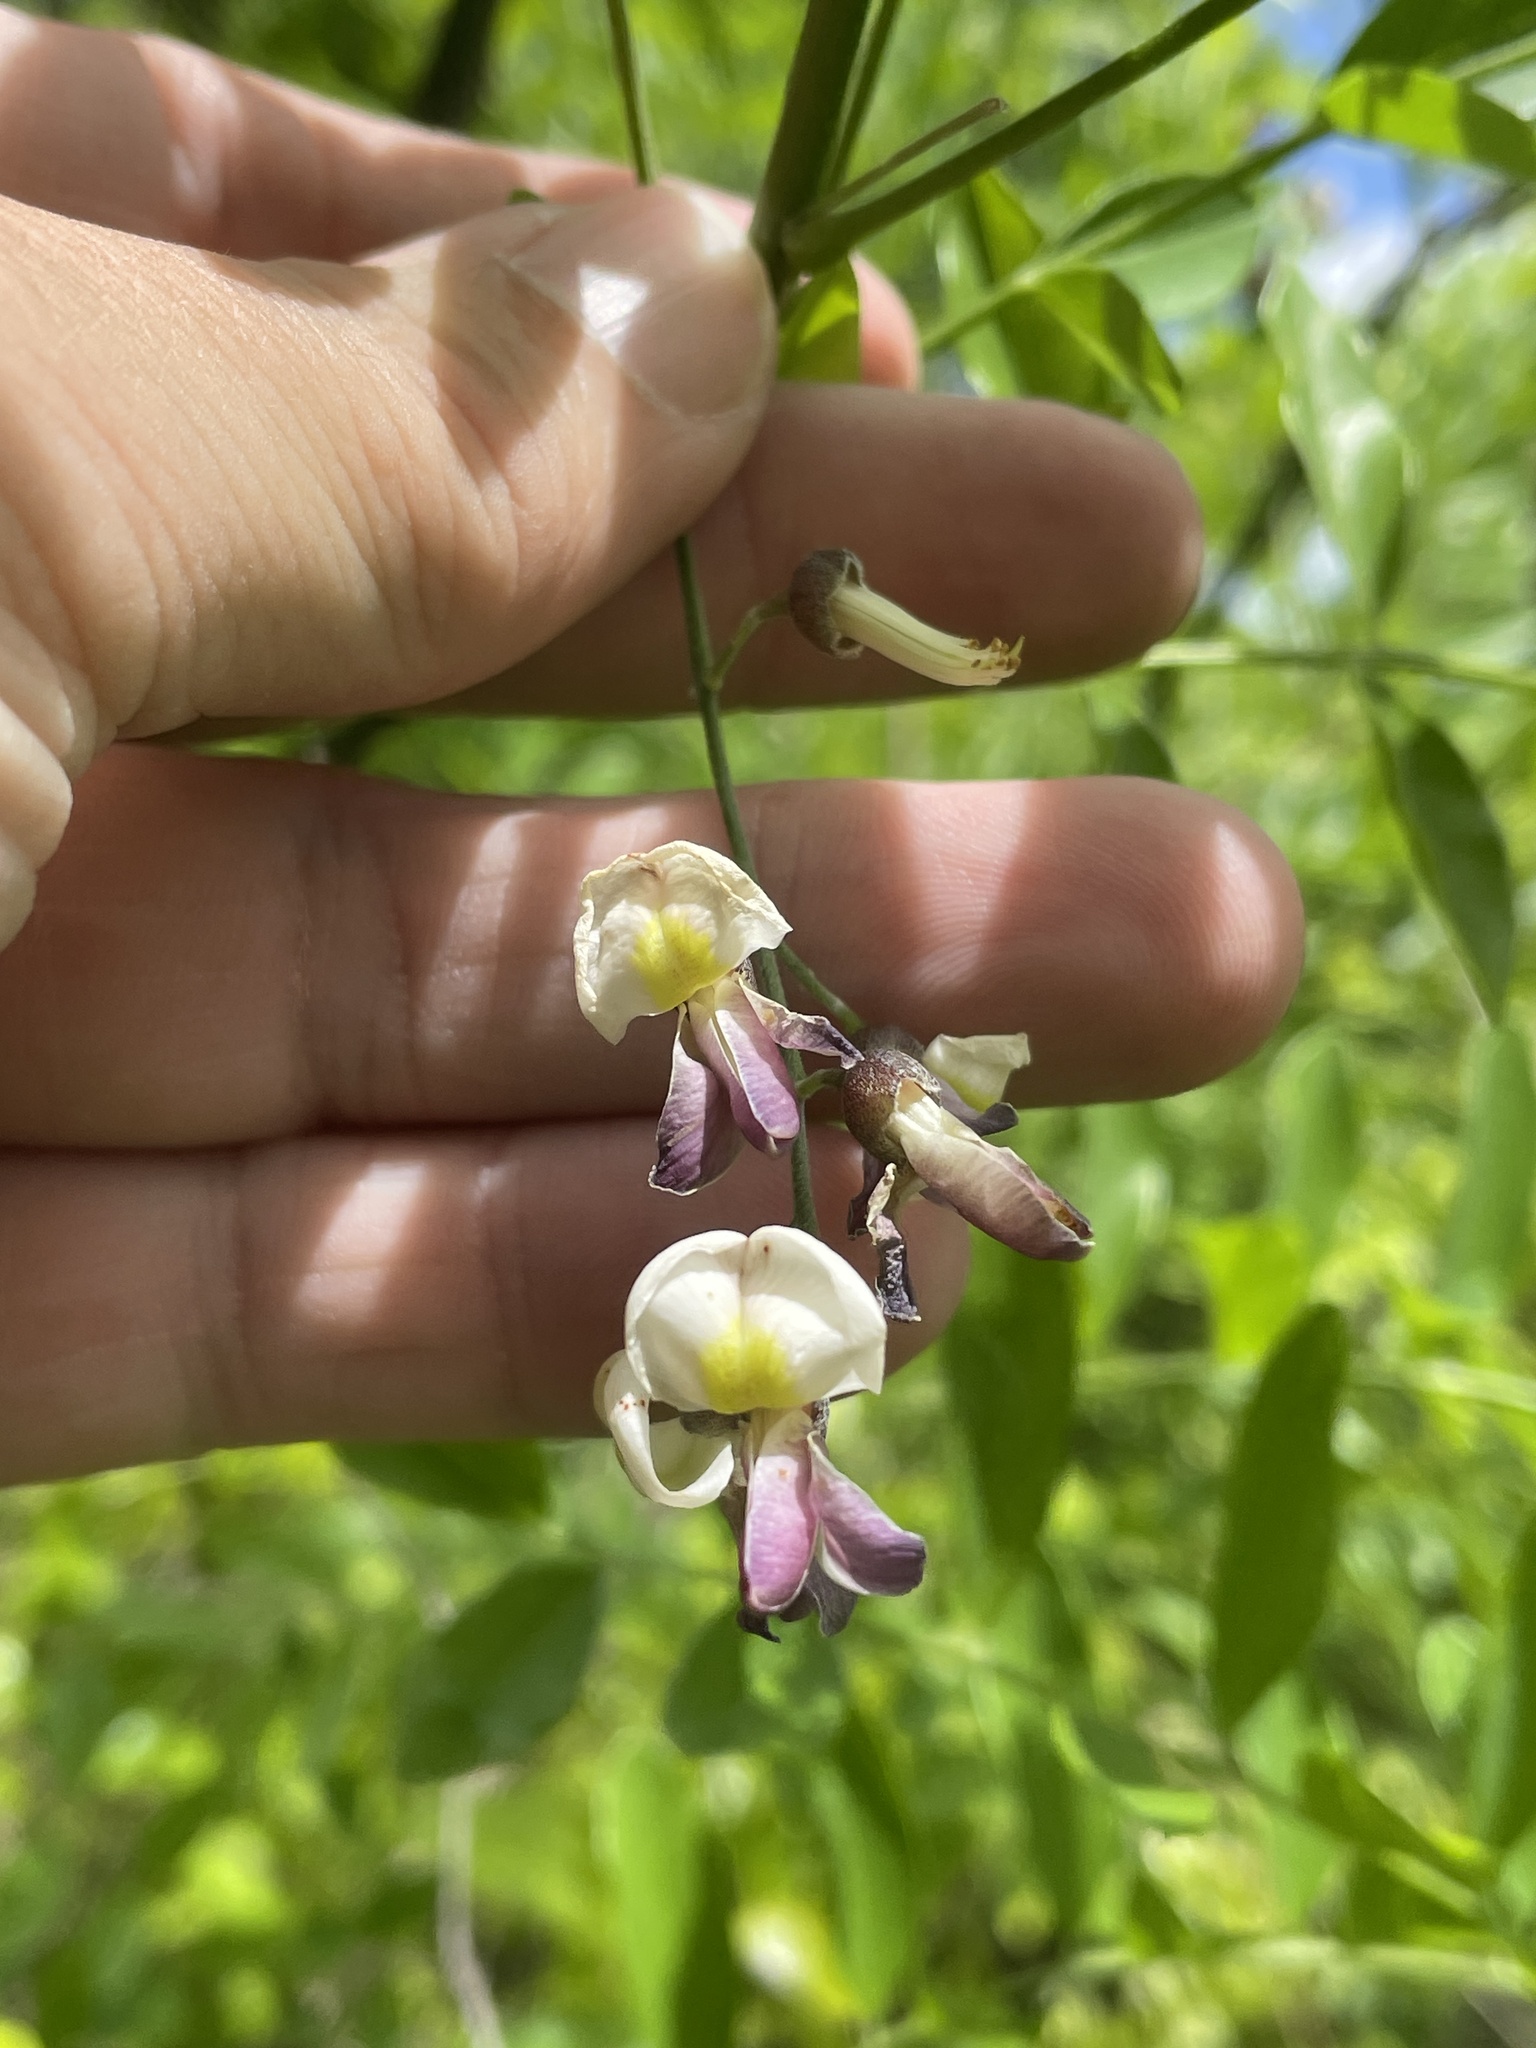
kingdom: Plantae
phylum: Tracheophyta
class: Magnoliopsida
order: Fabales
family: Fabaceae
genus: Styphnolobium
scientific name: Styphnolobium affine
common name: Texas sophora
